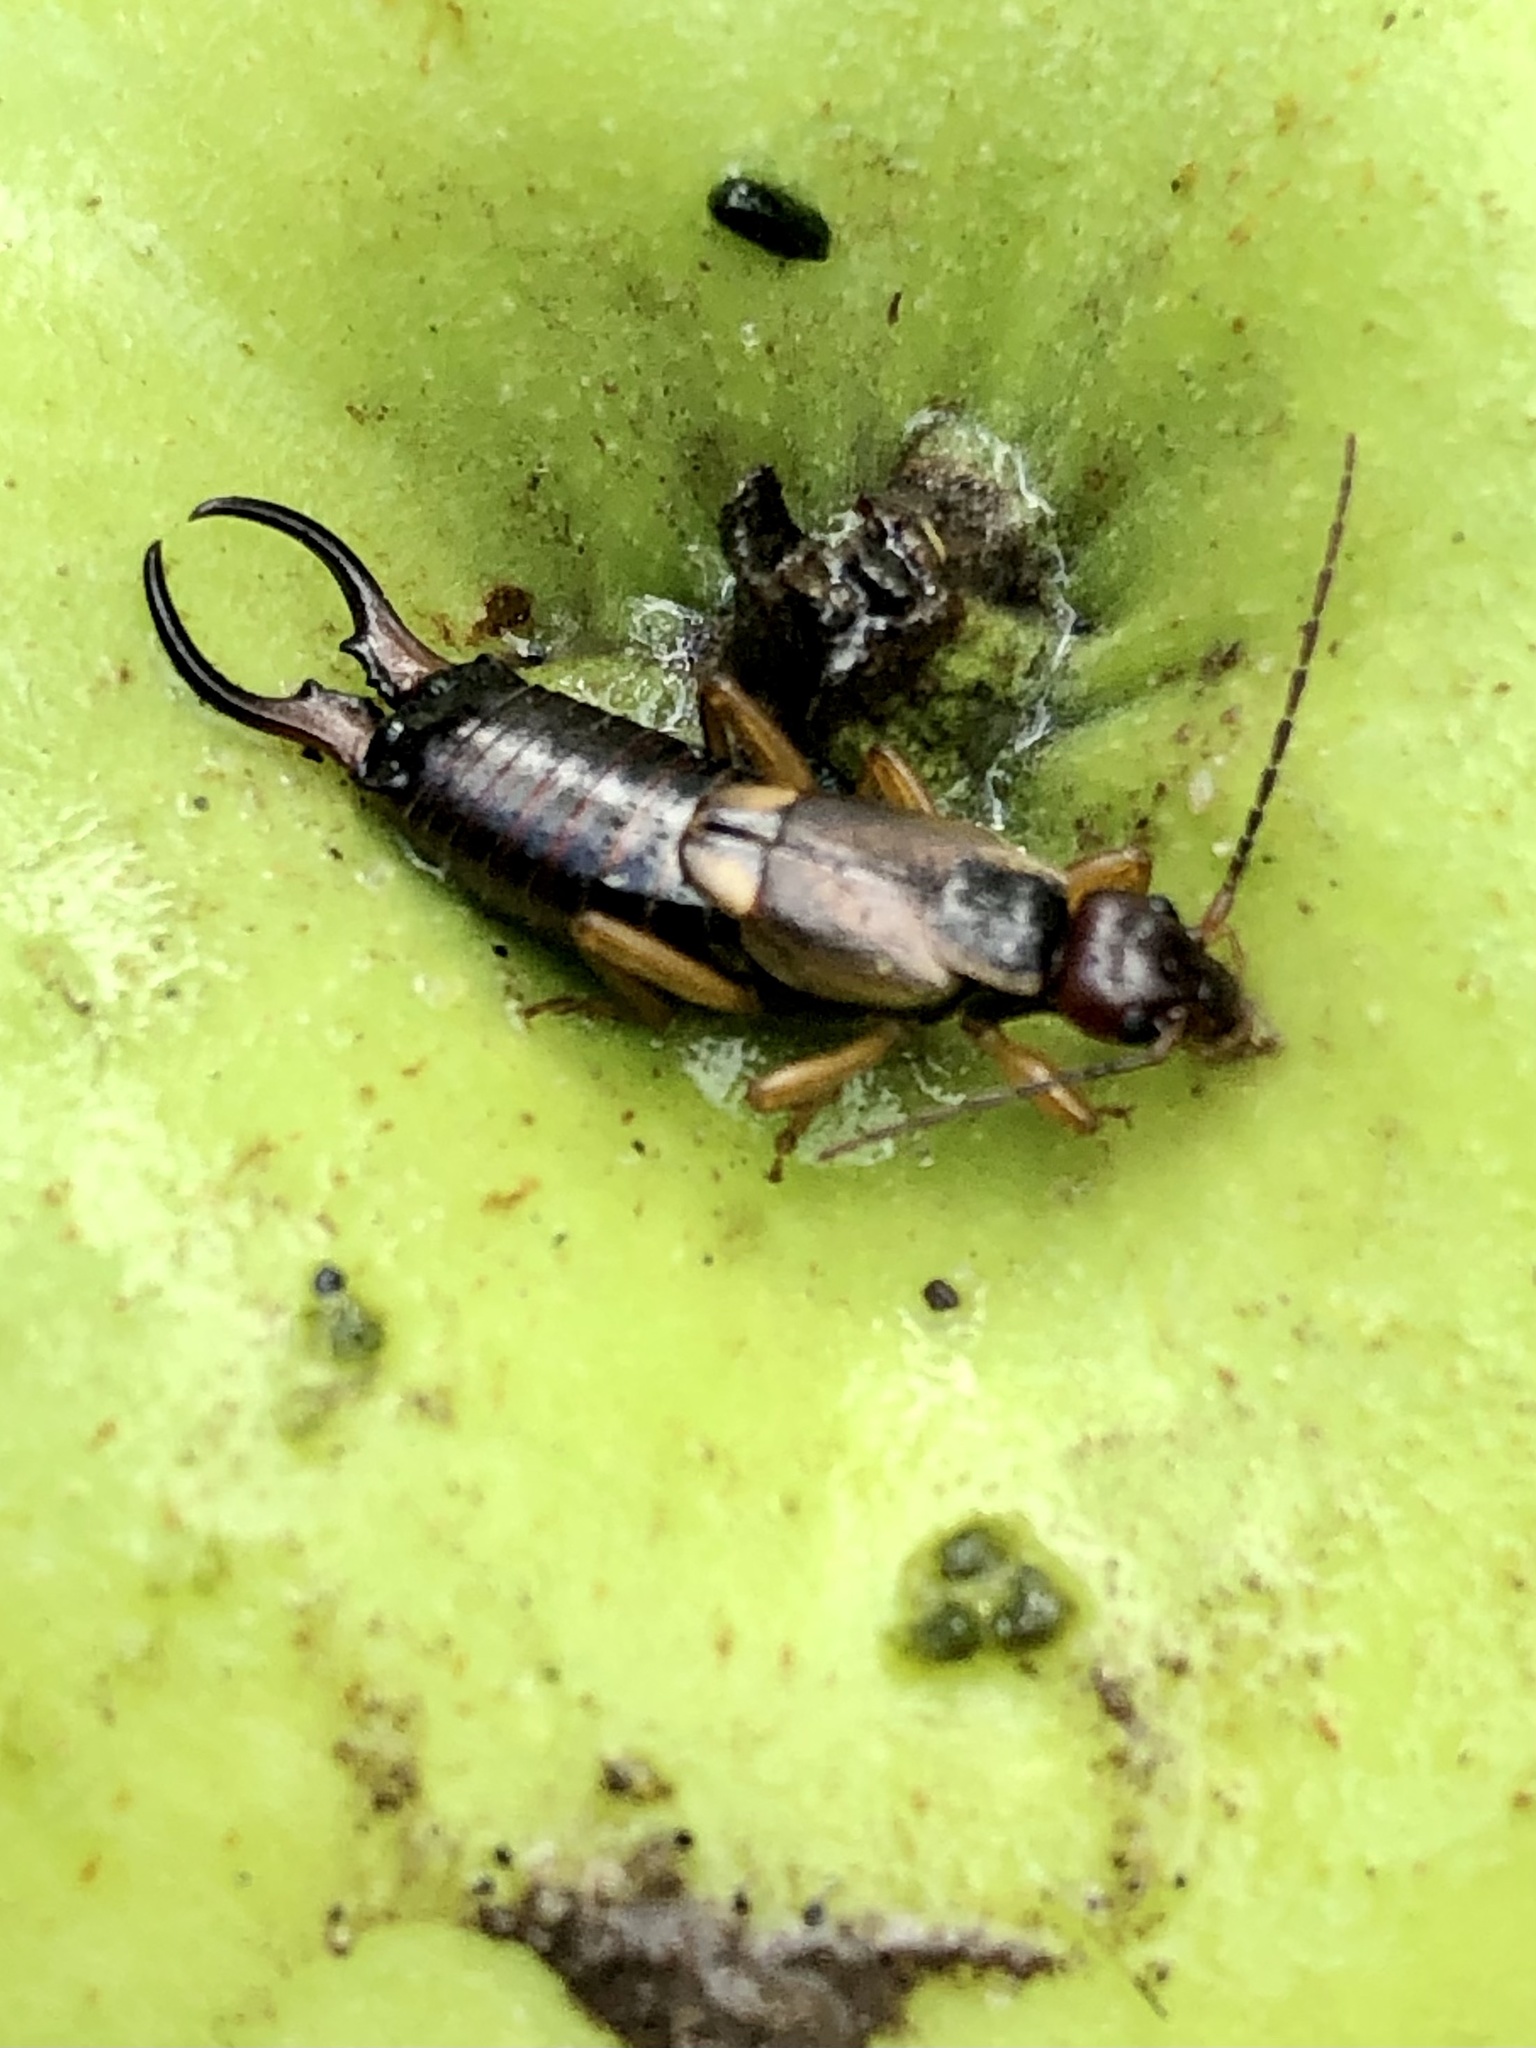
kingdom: Animalia
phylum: Arthropoda
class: Insecta
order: Dermaptera
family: Forficulidae
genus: Forficula
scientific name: Forficula
